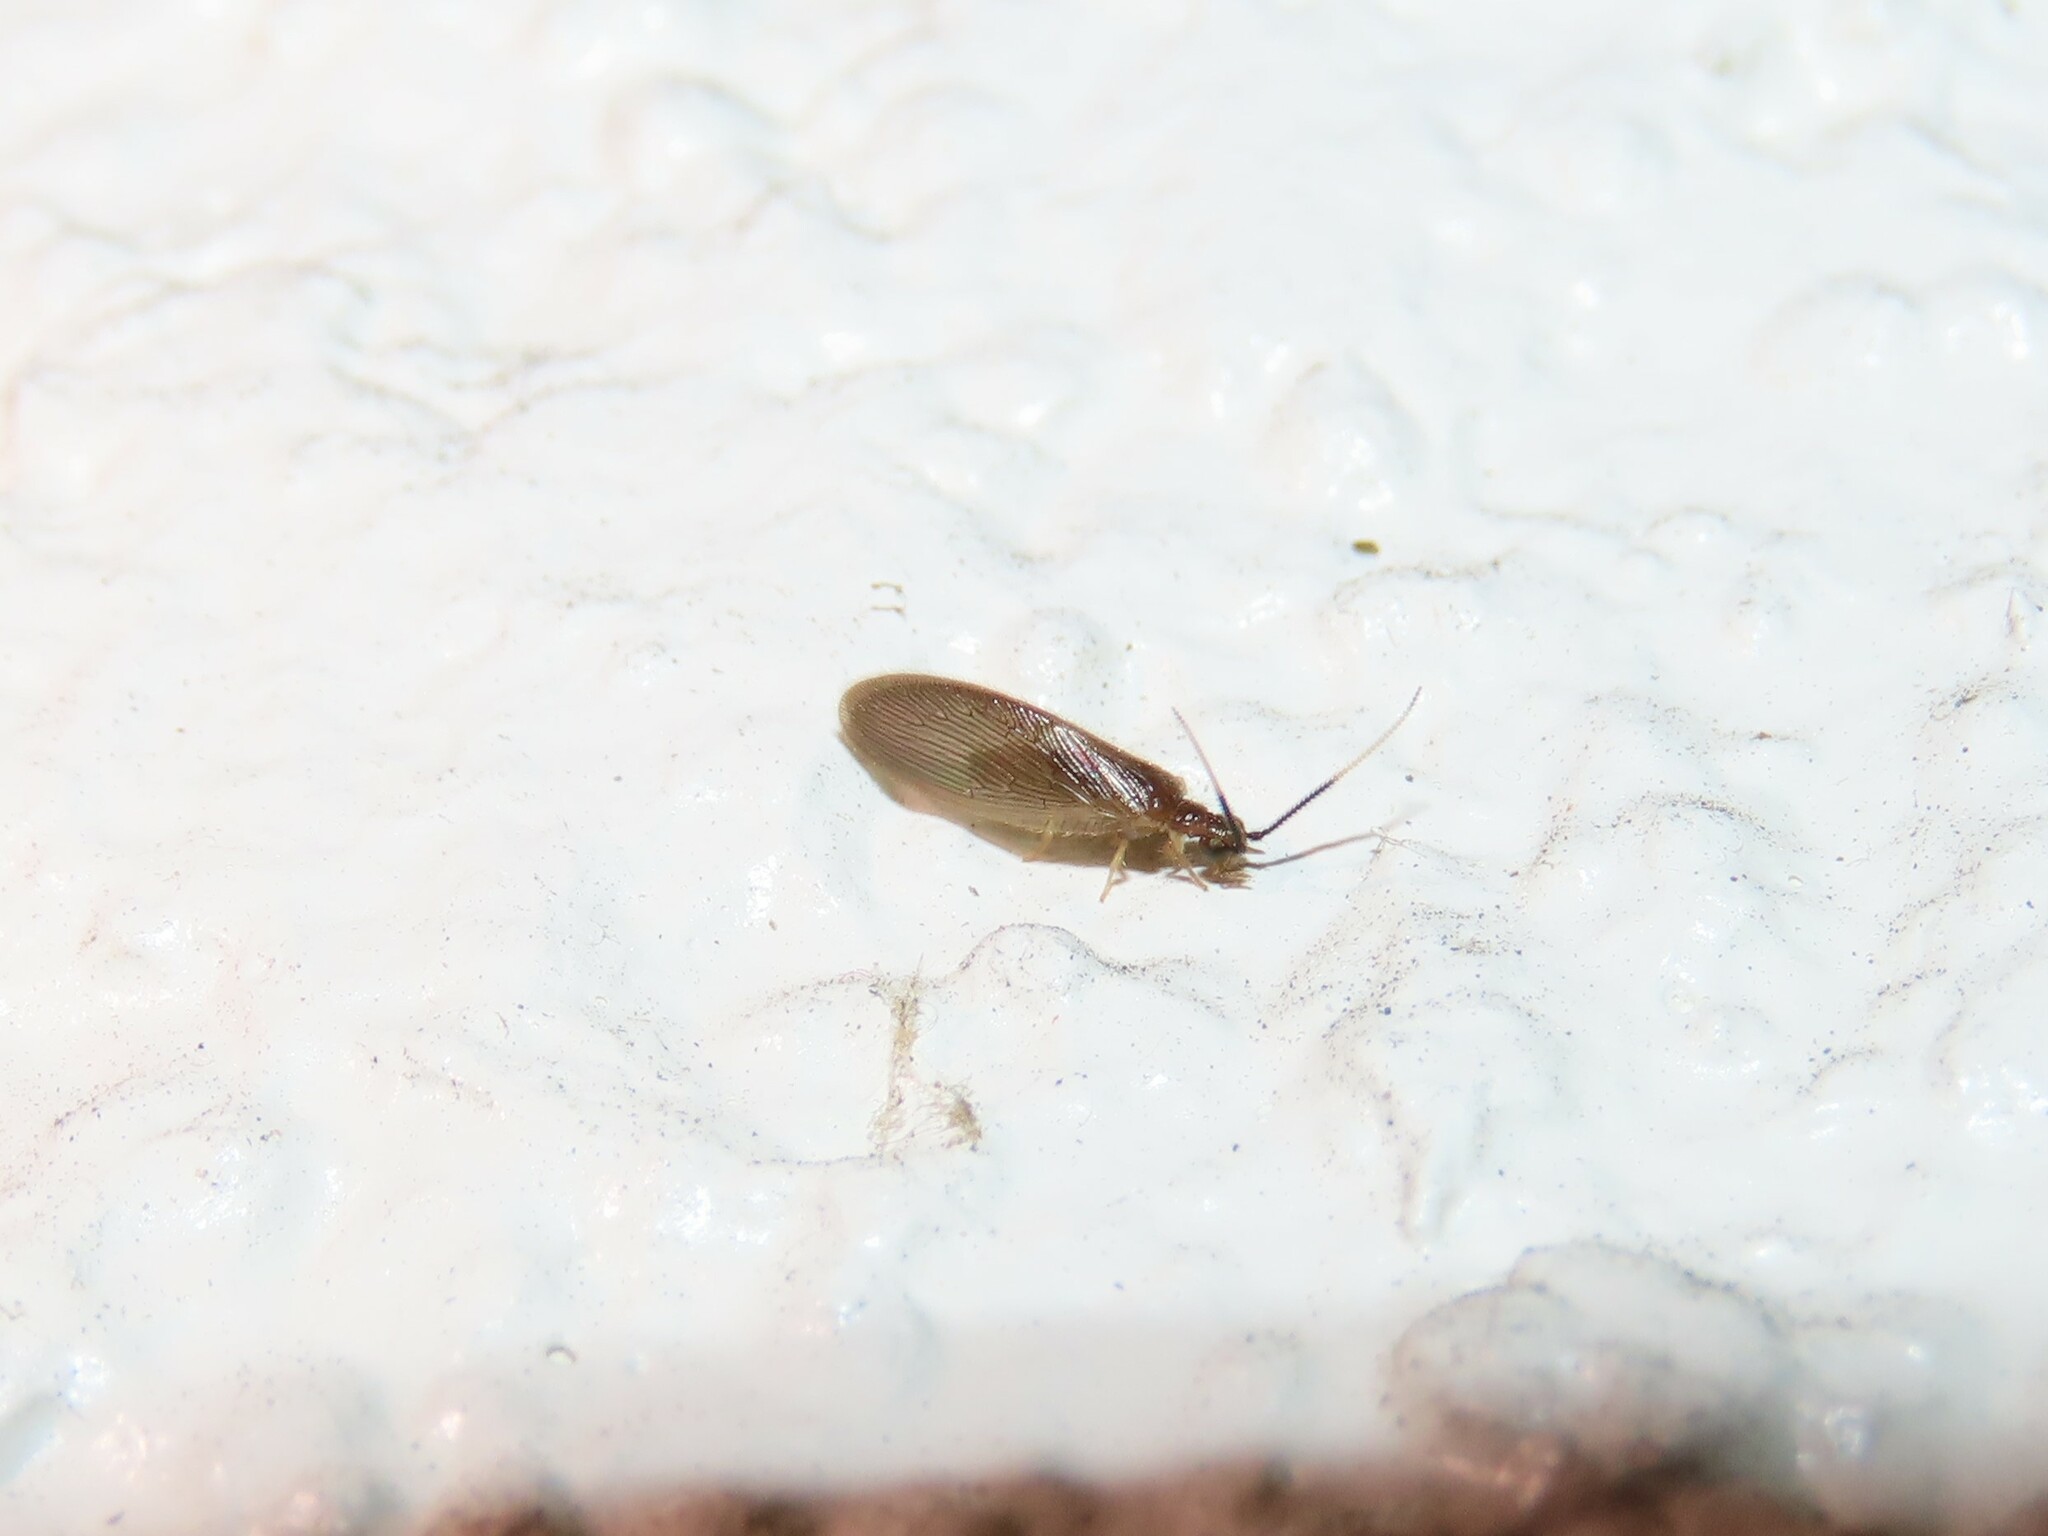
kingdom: Animalia
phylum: Arthropoda
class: Insecta
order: Neuroptera
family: Sisyridae
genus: Sisyra
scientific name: Sisyra apicalis
